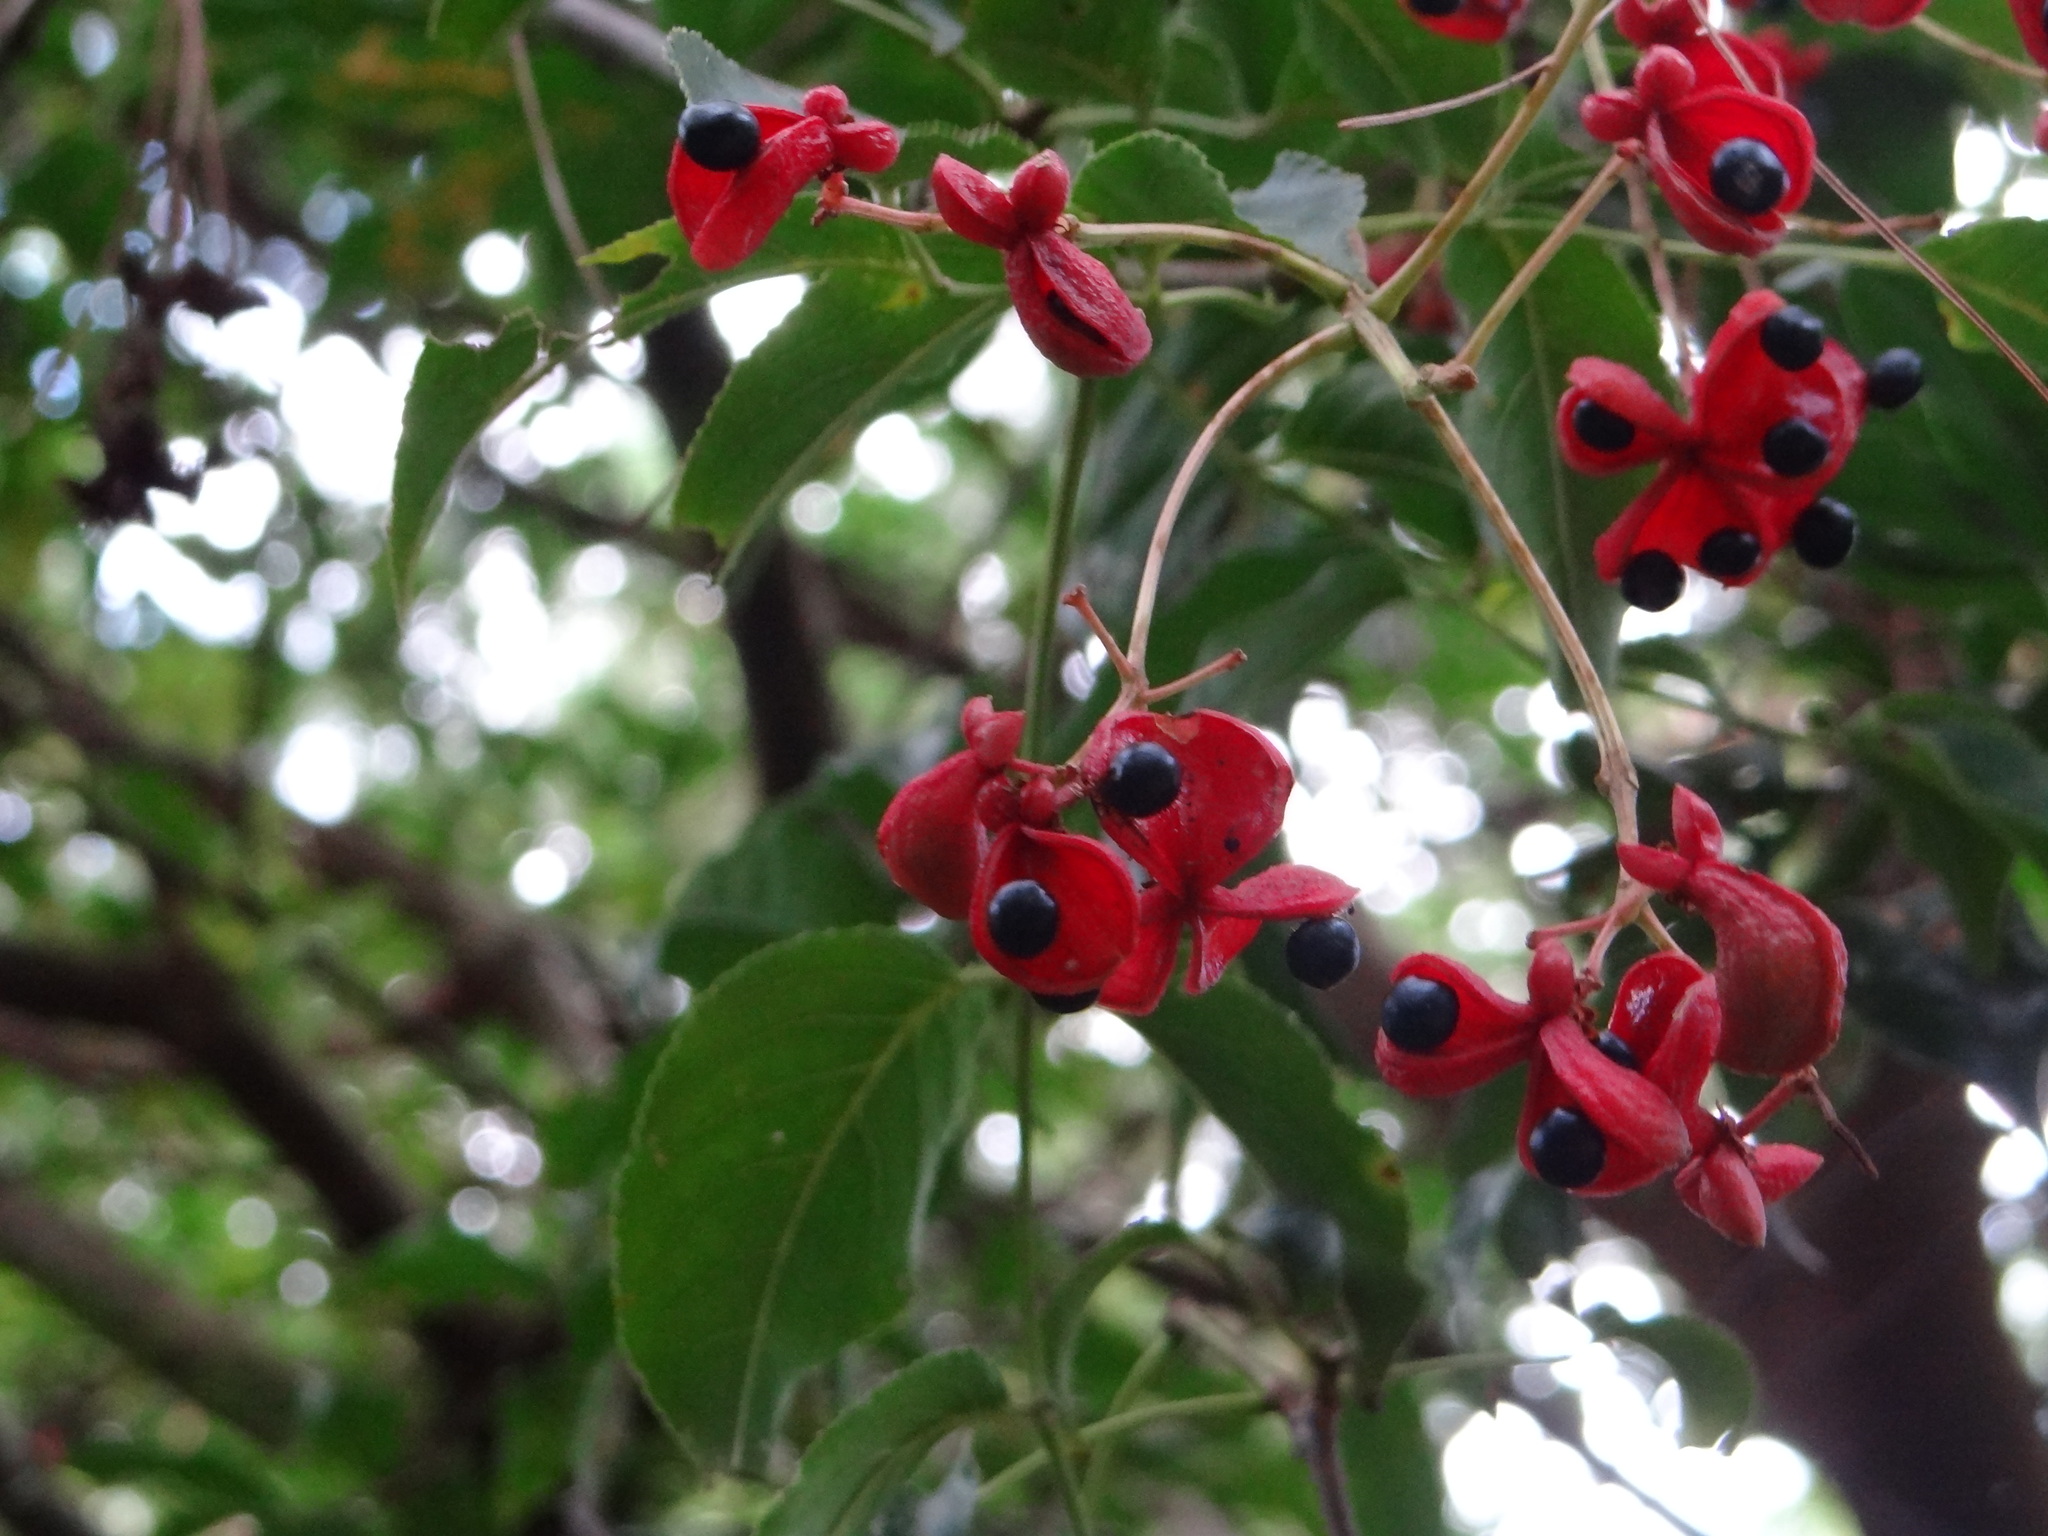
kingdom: Plantae
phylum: Tracheophyta
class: Magnoliopsida
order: Crossosomatales
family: Staphyleaceae
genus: Staphylea
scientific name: Staphylea japonica
